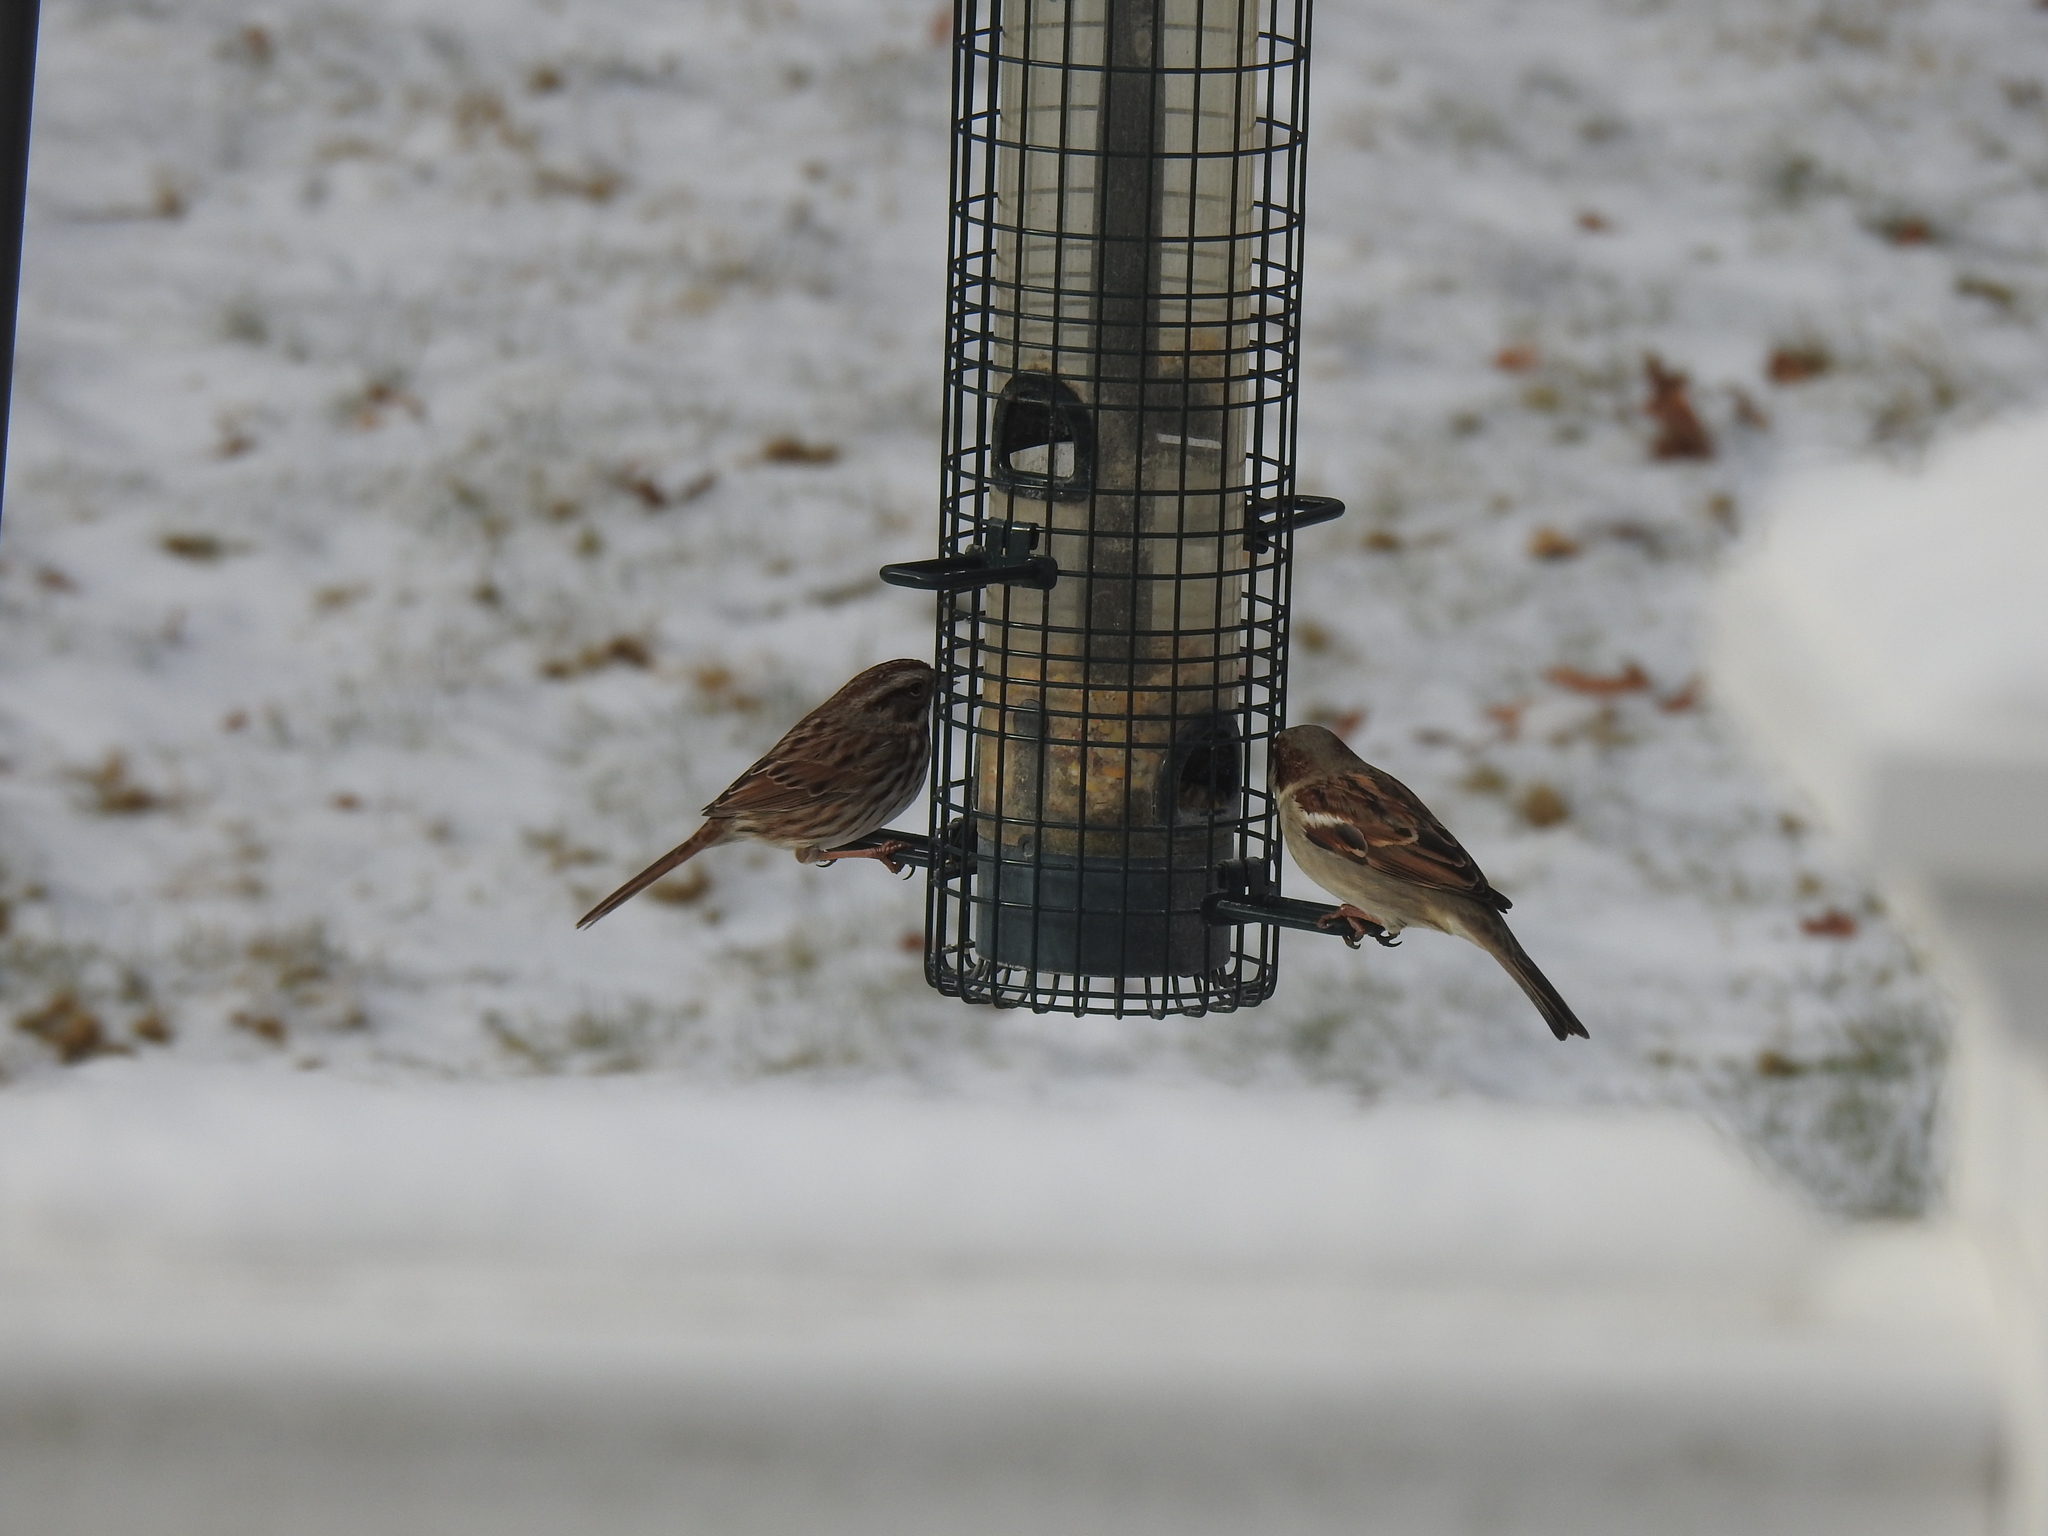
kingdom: Animalia
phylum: Chordata
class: Aves
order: Passeriformes
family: Passeridae
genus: Passer
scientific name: Passer domesticus
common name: House sparrow
